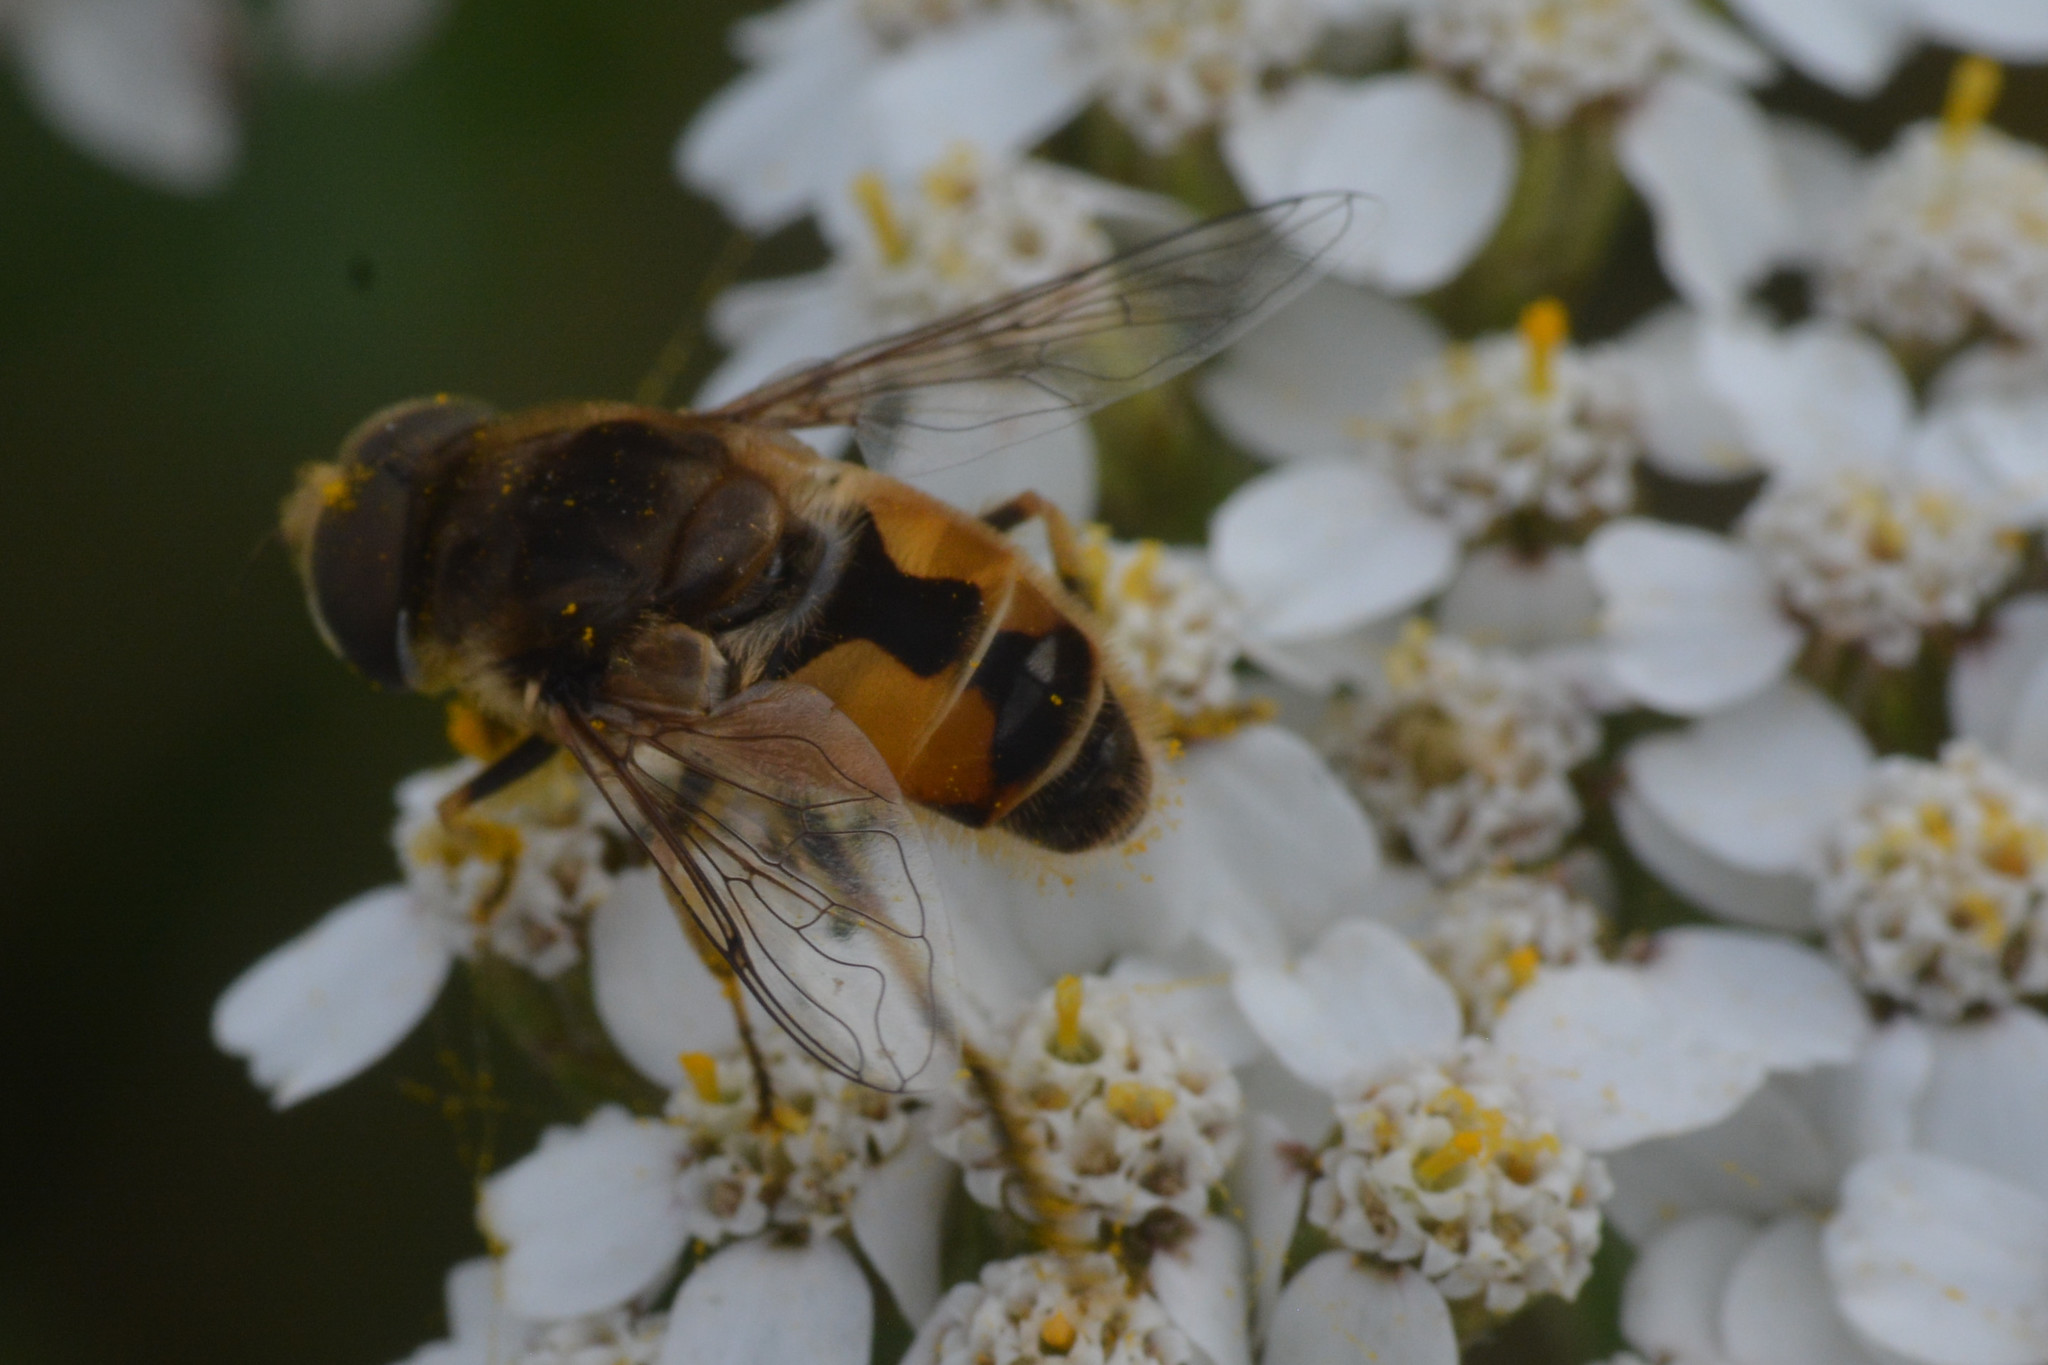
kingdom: Animalia
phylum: Arthropoda
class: Insecta
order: Diptera
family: Syrphidae
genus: Eristalis
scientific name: Eristalis arbustorum
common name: Hover fly
